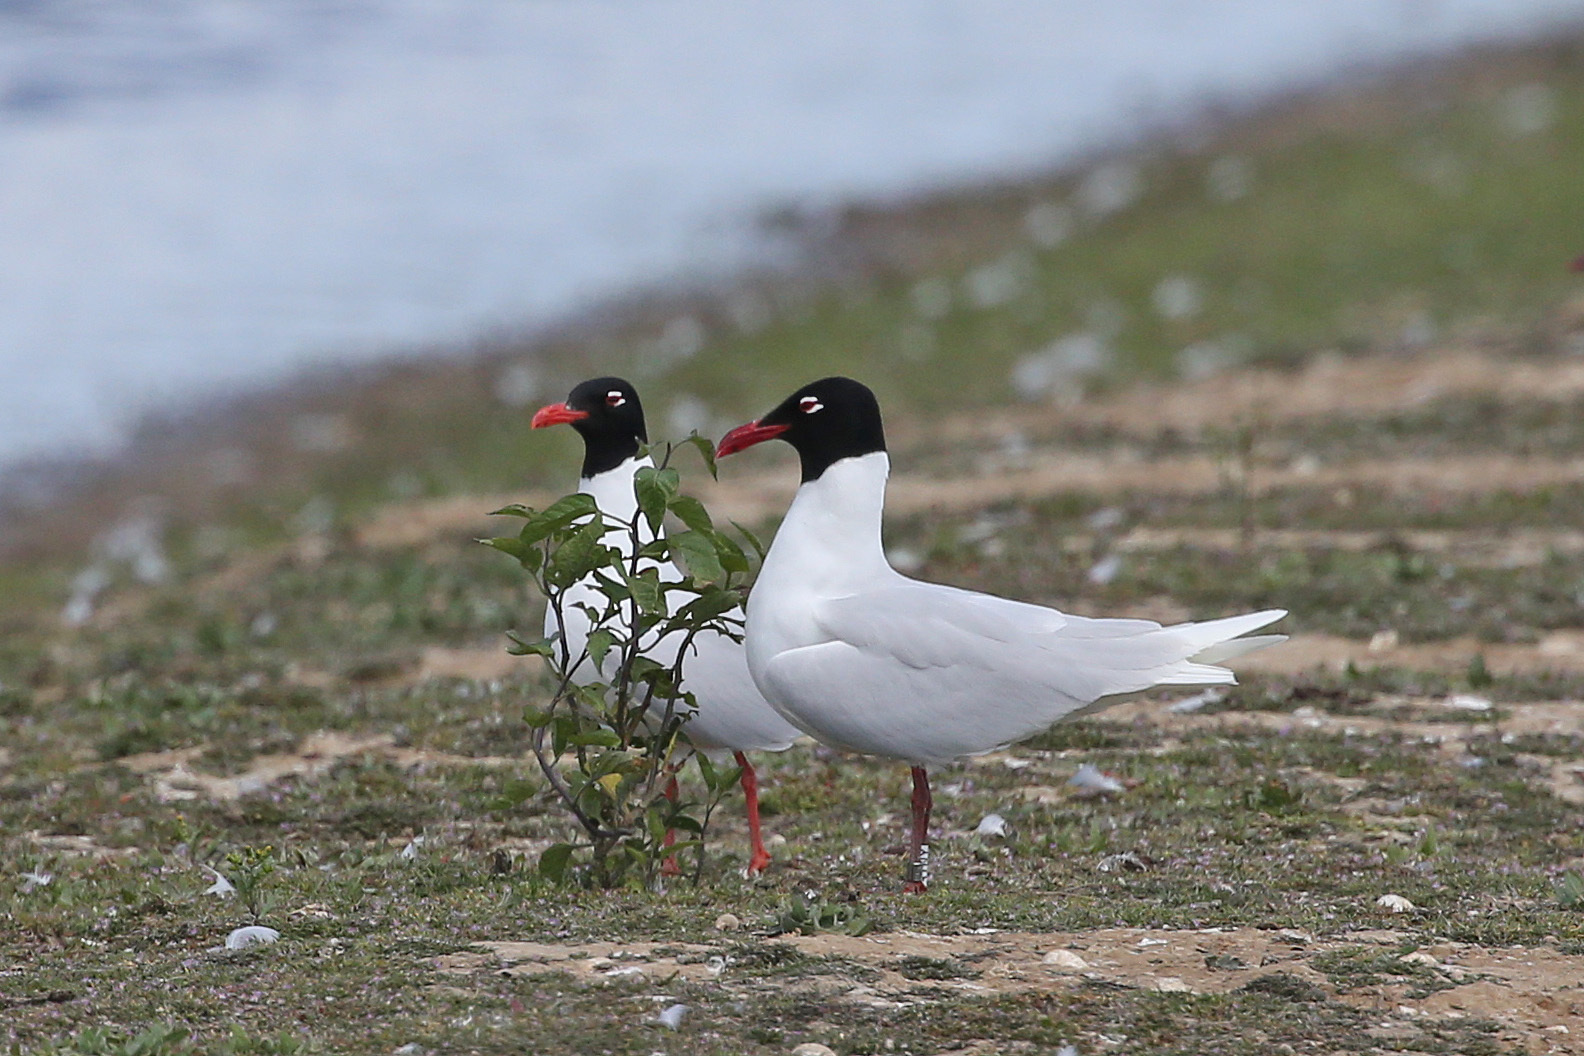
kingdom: Animalia
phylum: Chordata
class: Aves
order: Charadriiformes
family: Laridae
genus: Ichthyaetus
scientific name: Ichthyaetus melanocephalus
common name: Mediterranean gull
